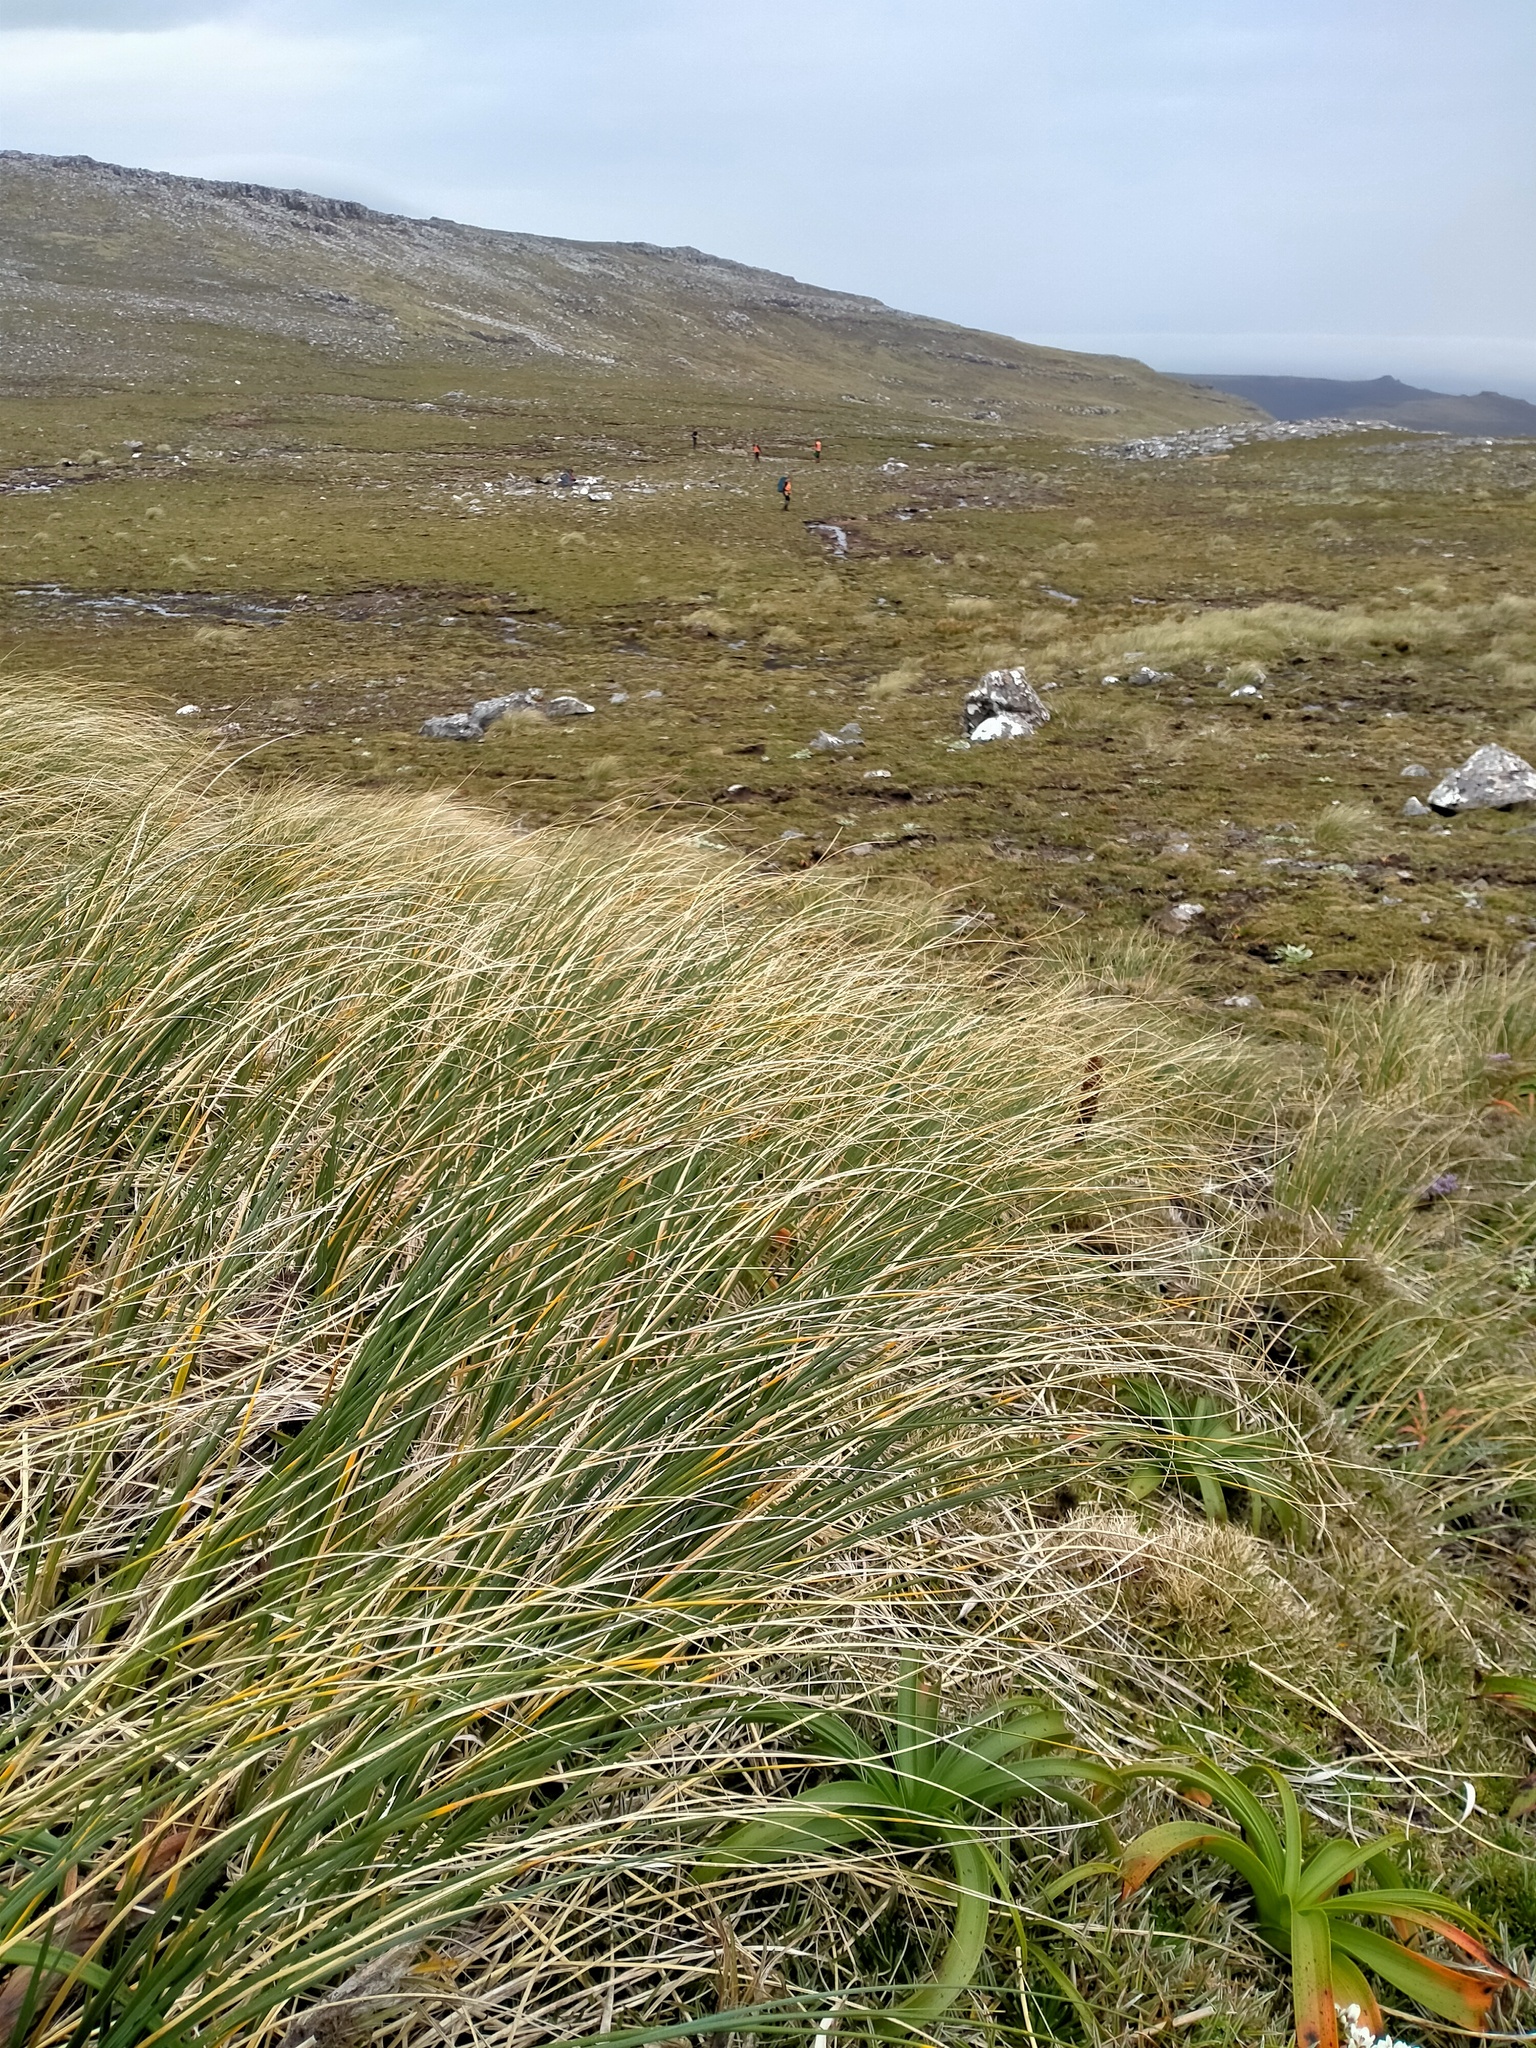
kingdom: Plantae
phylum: Tracheophyta
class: Liliopsida
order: Poales
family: Poaceae
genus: Chionochloa
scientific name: Chionochloa antarctica
